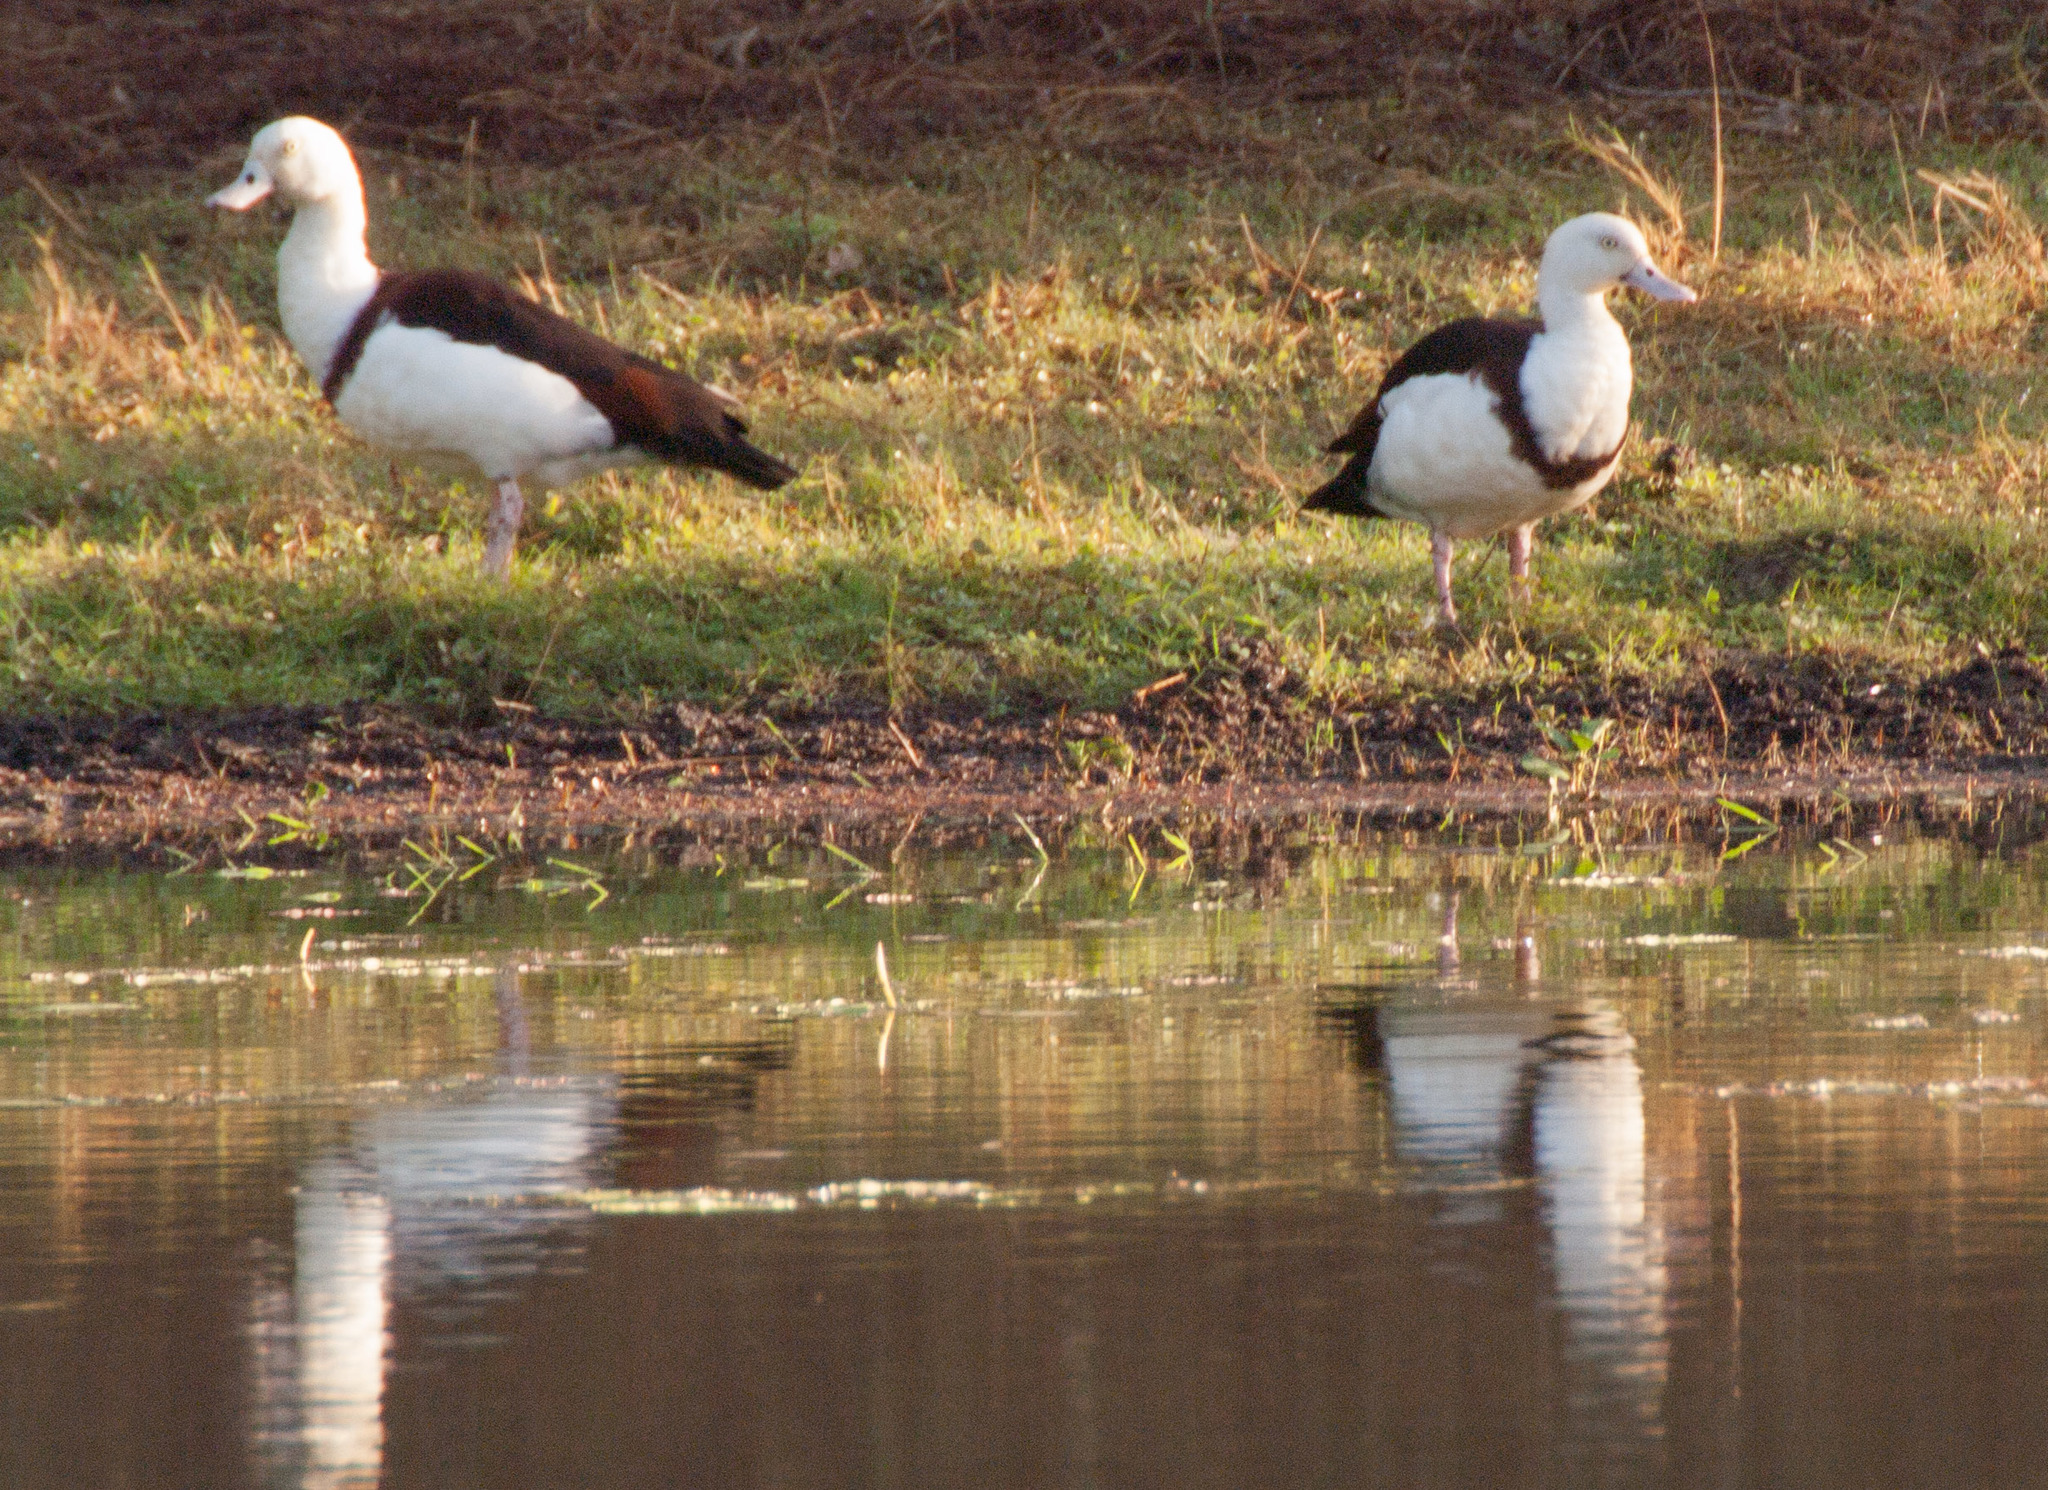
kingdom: Animalia
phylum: Chordata
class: Aves
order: Anseriformes
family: Anatidae
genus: Radjah
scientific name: Radjah radjah
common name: Radjah shelduck
